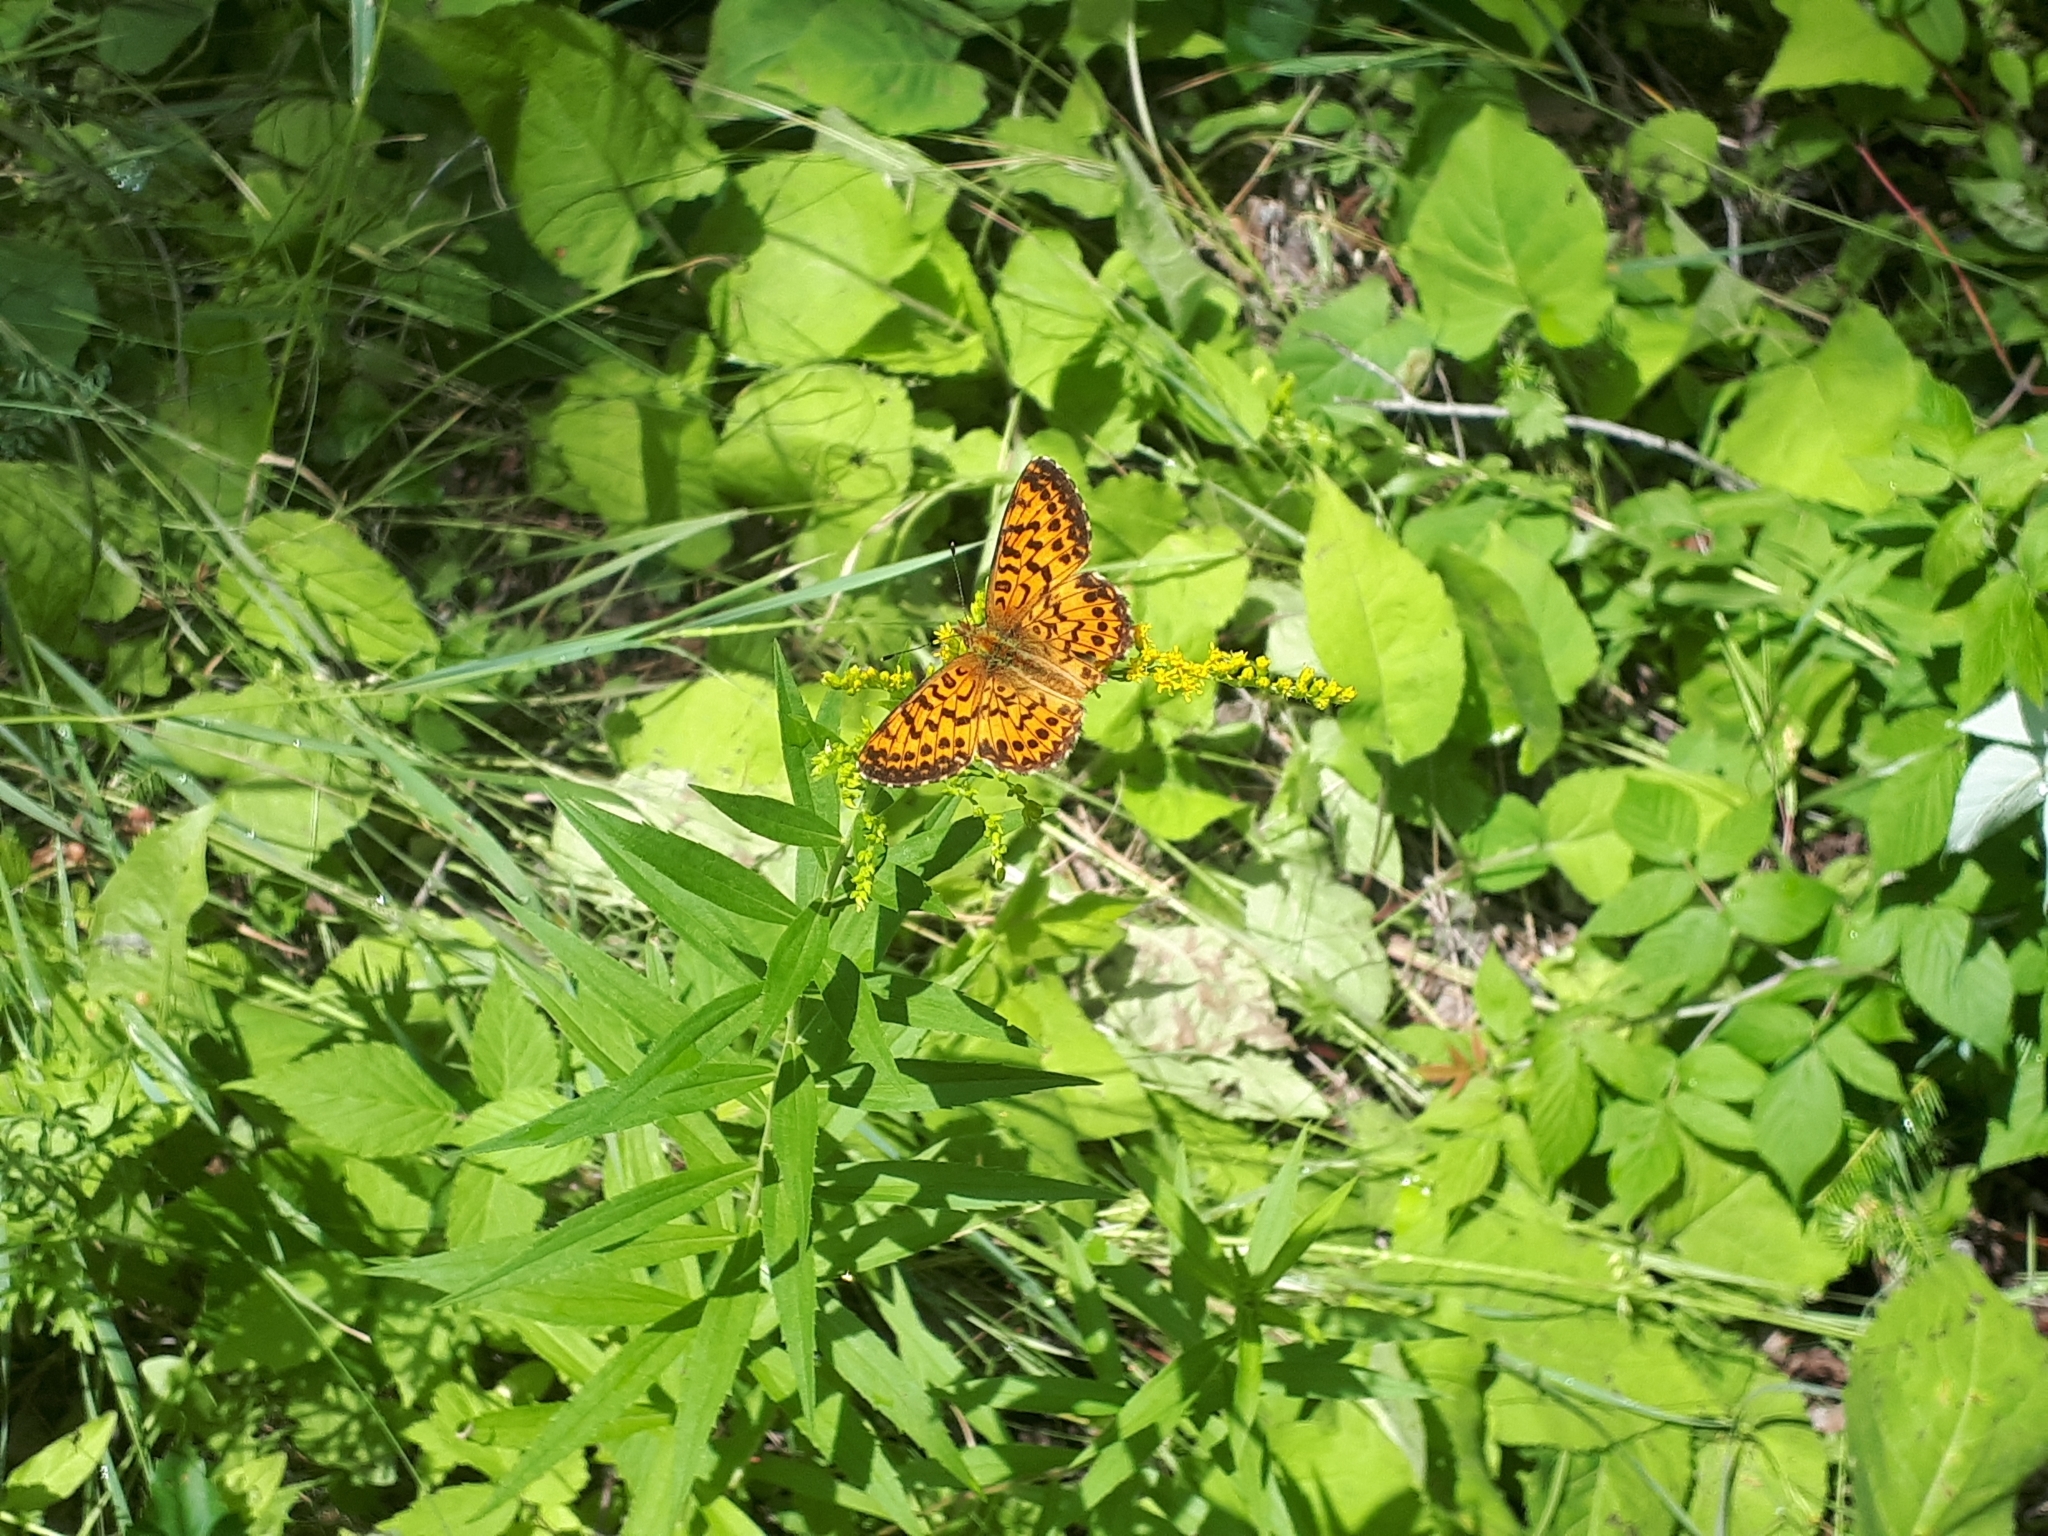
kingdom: Animalia
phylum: Arthropoda
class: Insecta
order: Lepidoptera
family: Nymphalidae
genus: Boloria
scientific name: Boloria chariclea
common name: Arctic fritillary
